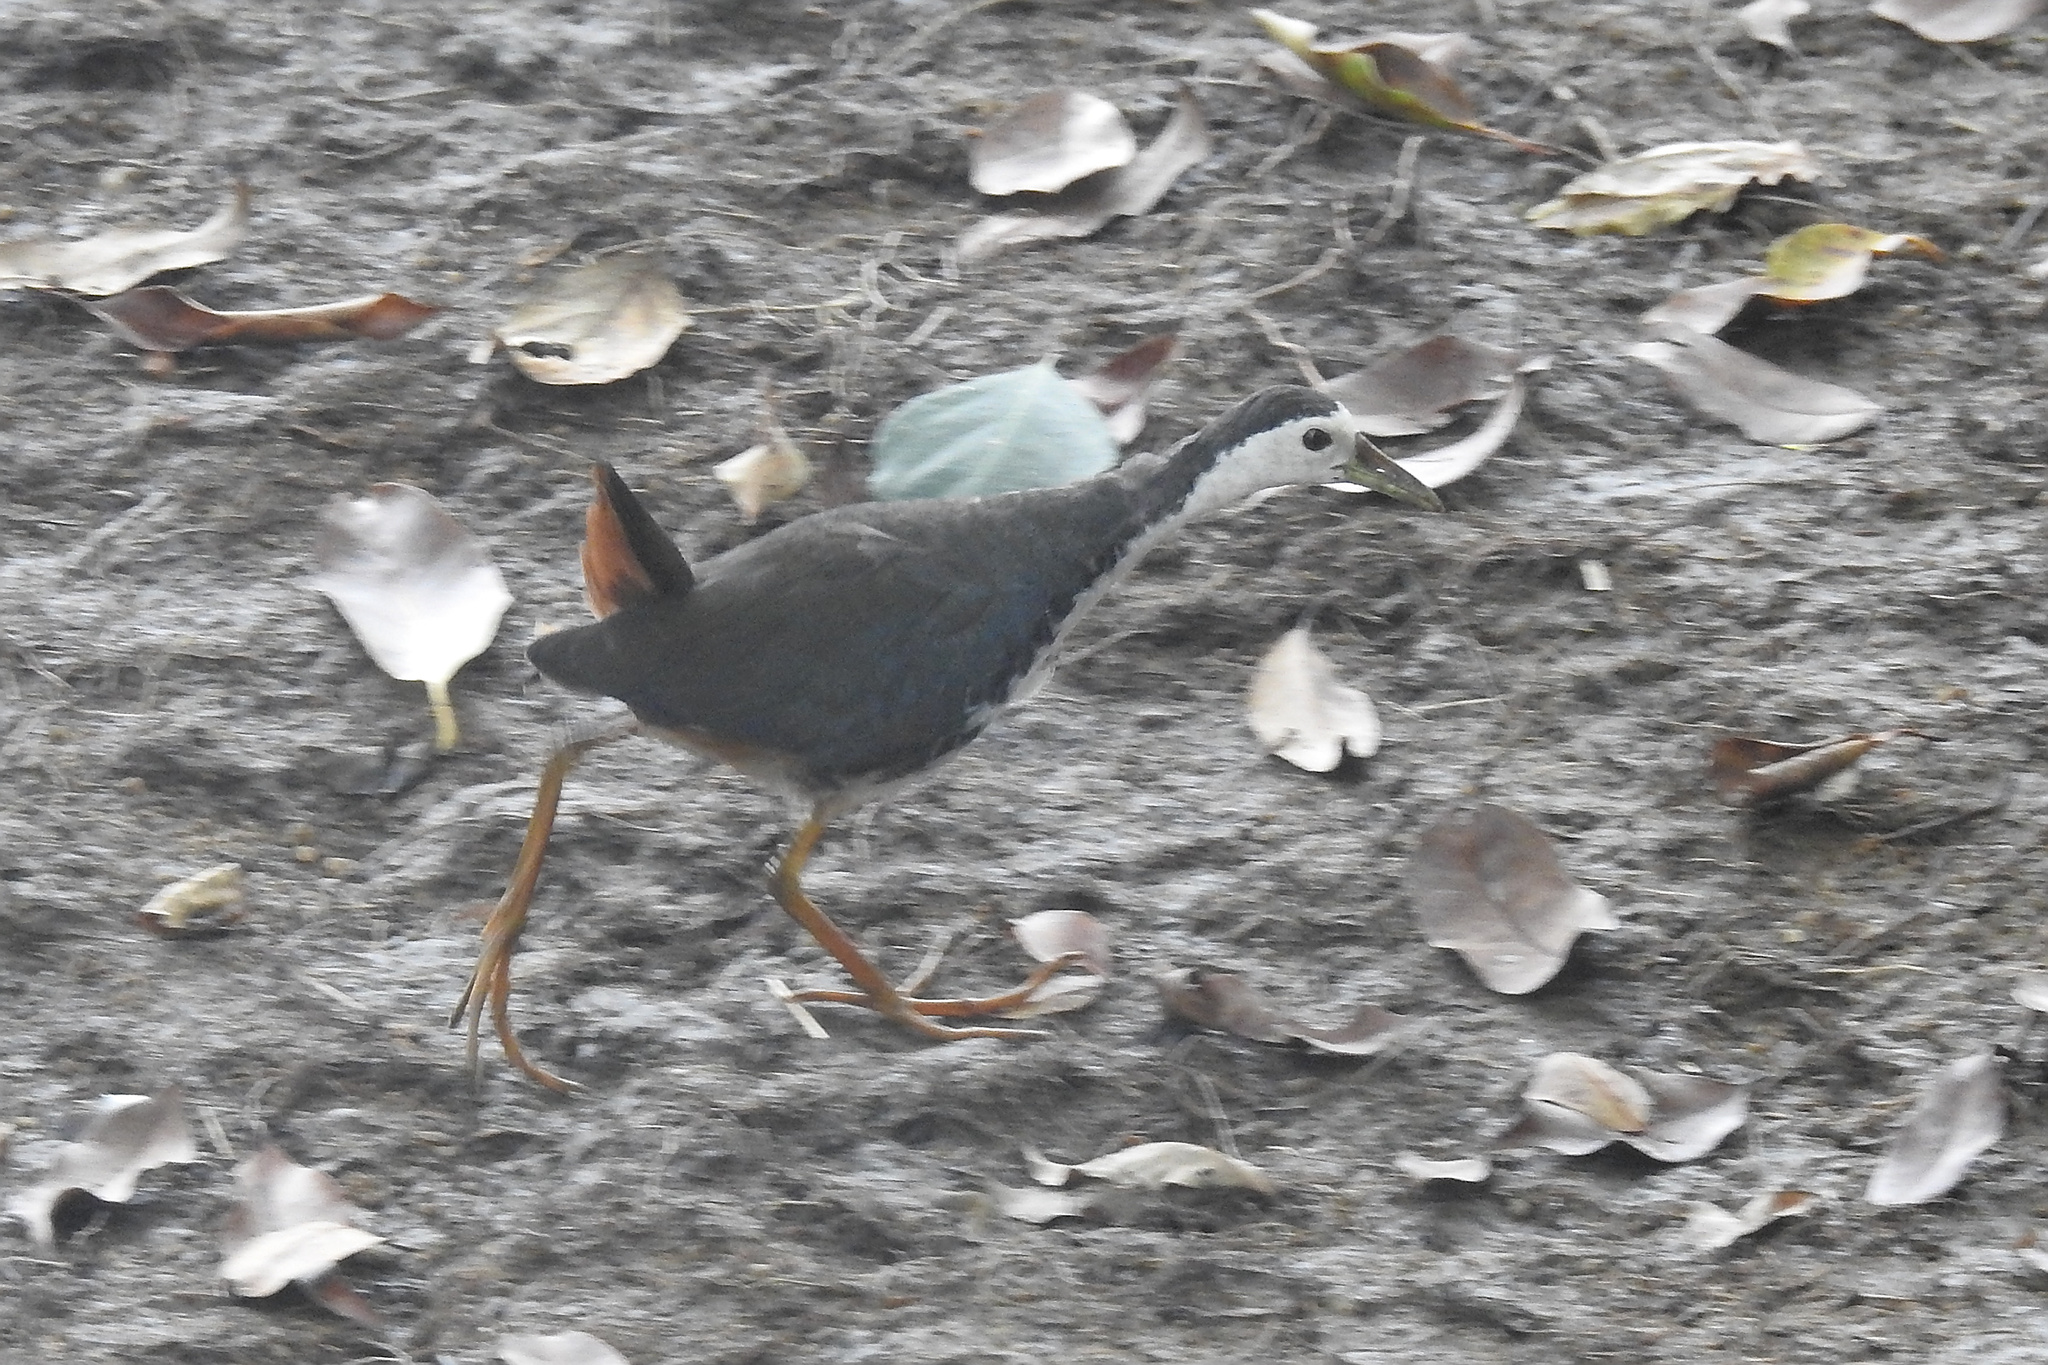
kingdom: Animalia
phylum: Chordata
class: Aves
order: Gruiformes
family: Rallidae
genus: Amaurornis
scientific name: Amaurornis phoenicurus
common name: White-breasted waterhen
